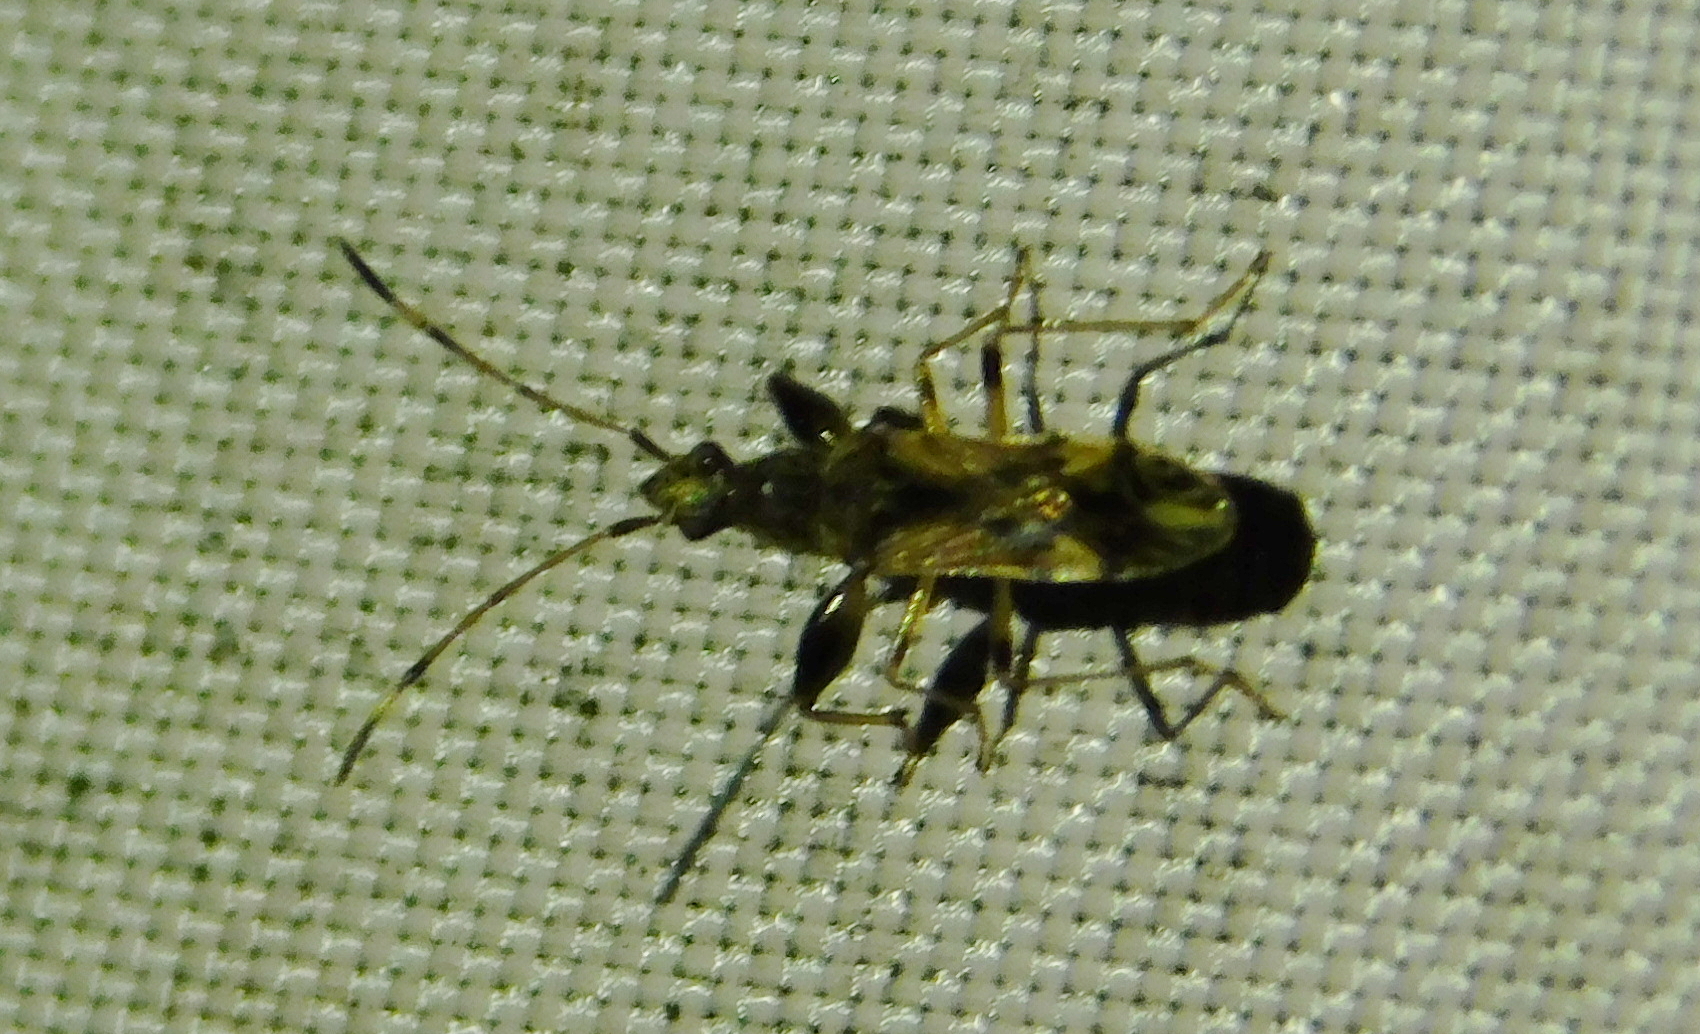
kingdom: Animalia
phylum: Arthropoda
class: Insecta
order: Hemiptera
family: Rhyparochromidae
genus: Neopamera
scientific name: Neopamera albocincta
